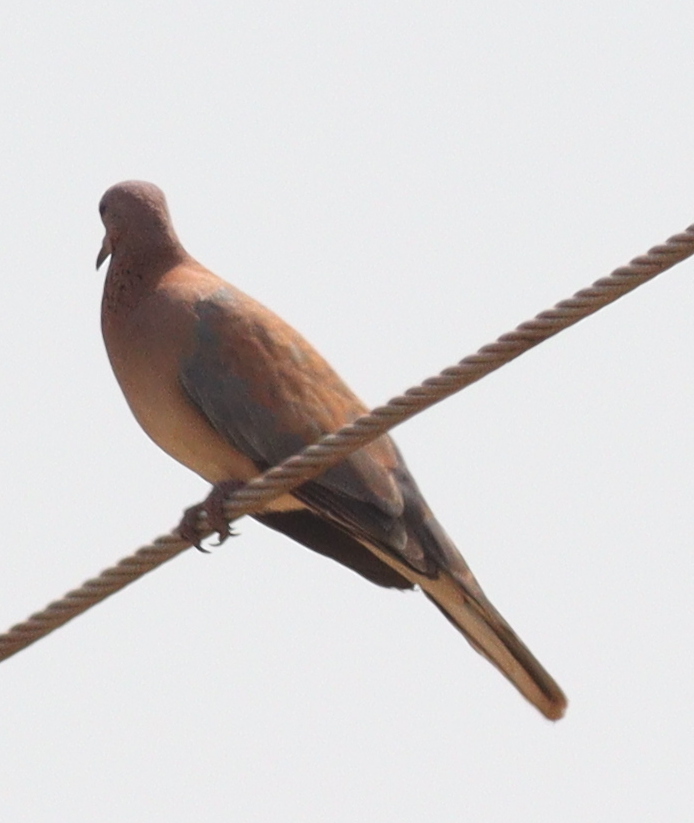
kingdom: Animalia
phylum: Chordata
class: Aves
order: Columbiformes
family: Columbidae
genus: Spilopelia
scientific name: Spilopelia senegalensis
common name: Laughing dove
